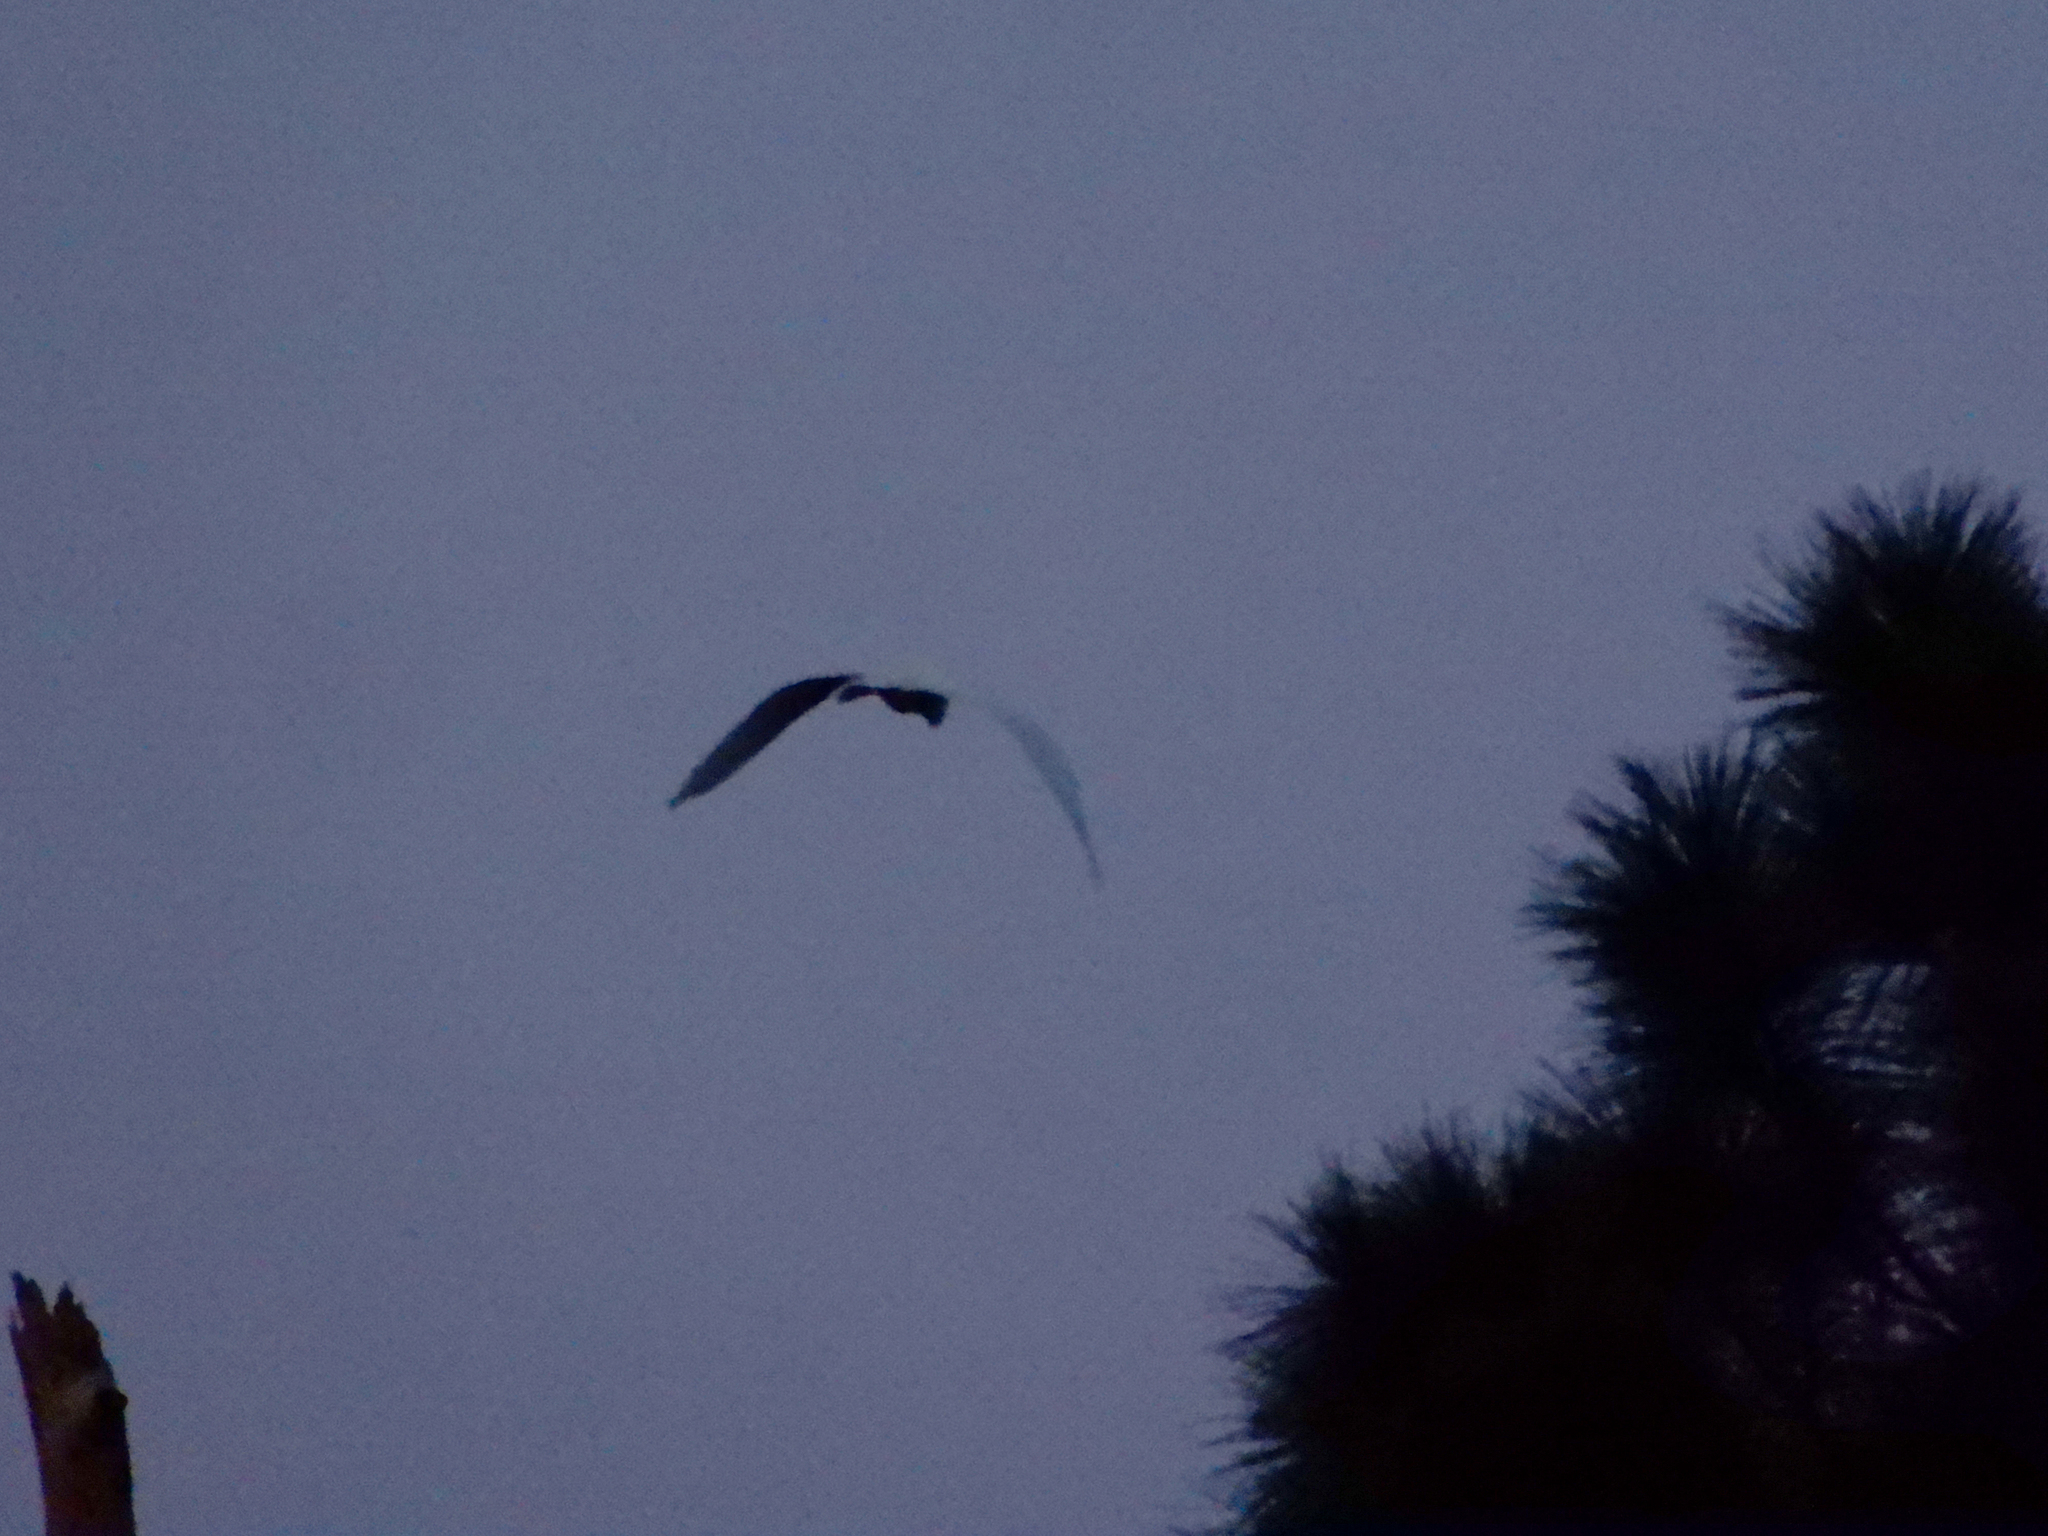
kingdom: Animalia
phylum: Chordata
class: Aves
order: Pelecaniformes
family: Ardeidae
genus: Ardea
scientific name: Ardea alba
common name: Great egret
